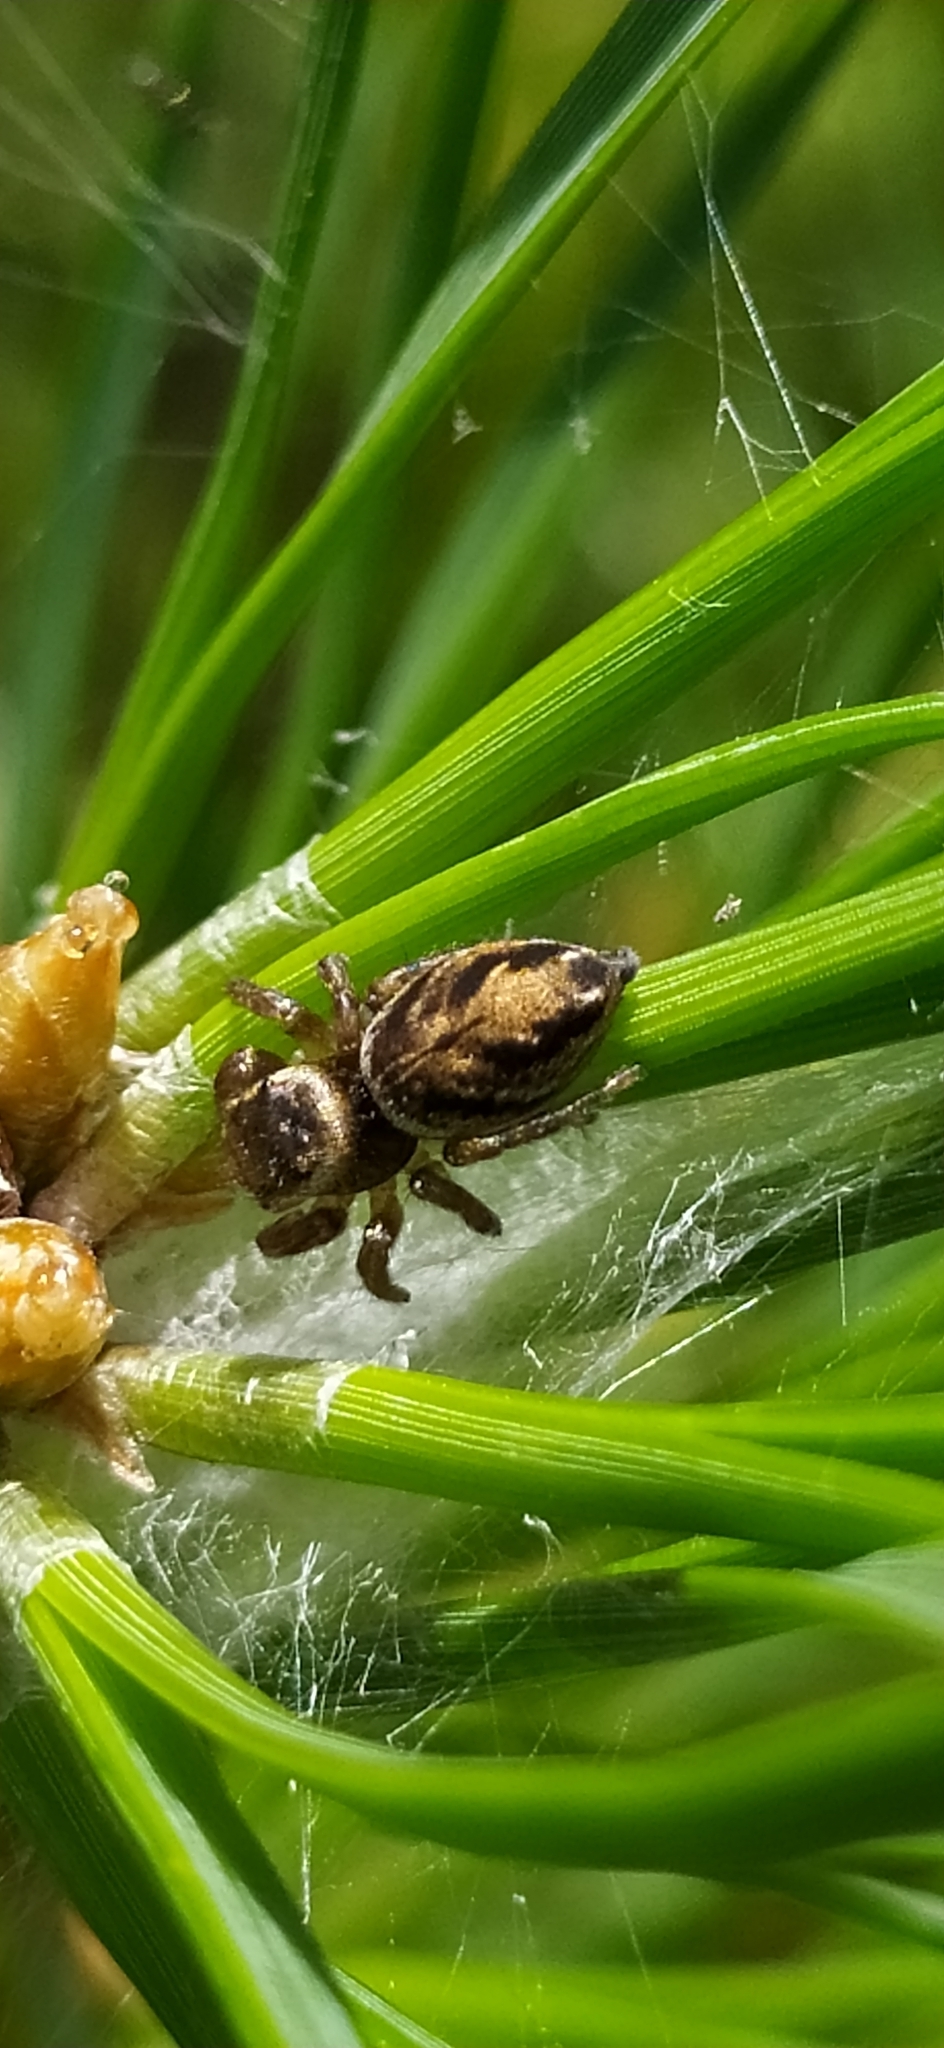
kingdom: Animalia
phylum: Arthropoda
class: Arachnida
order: Araneae
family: Salticidae
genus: Evarcha
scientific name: Evarcha arcuata
